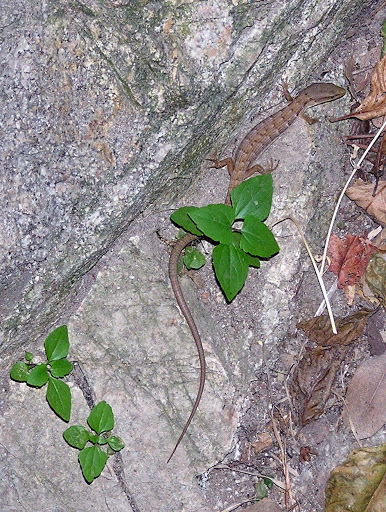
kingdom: Animalia
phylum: Chordata
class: Squamata
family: Anguidae
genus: Elgaria
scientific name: Elgaria multicarinata
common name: Southern alligator lizard
